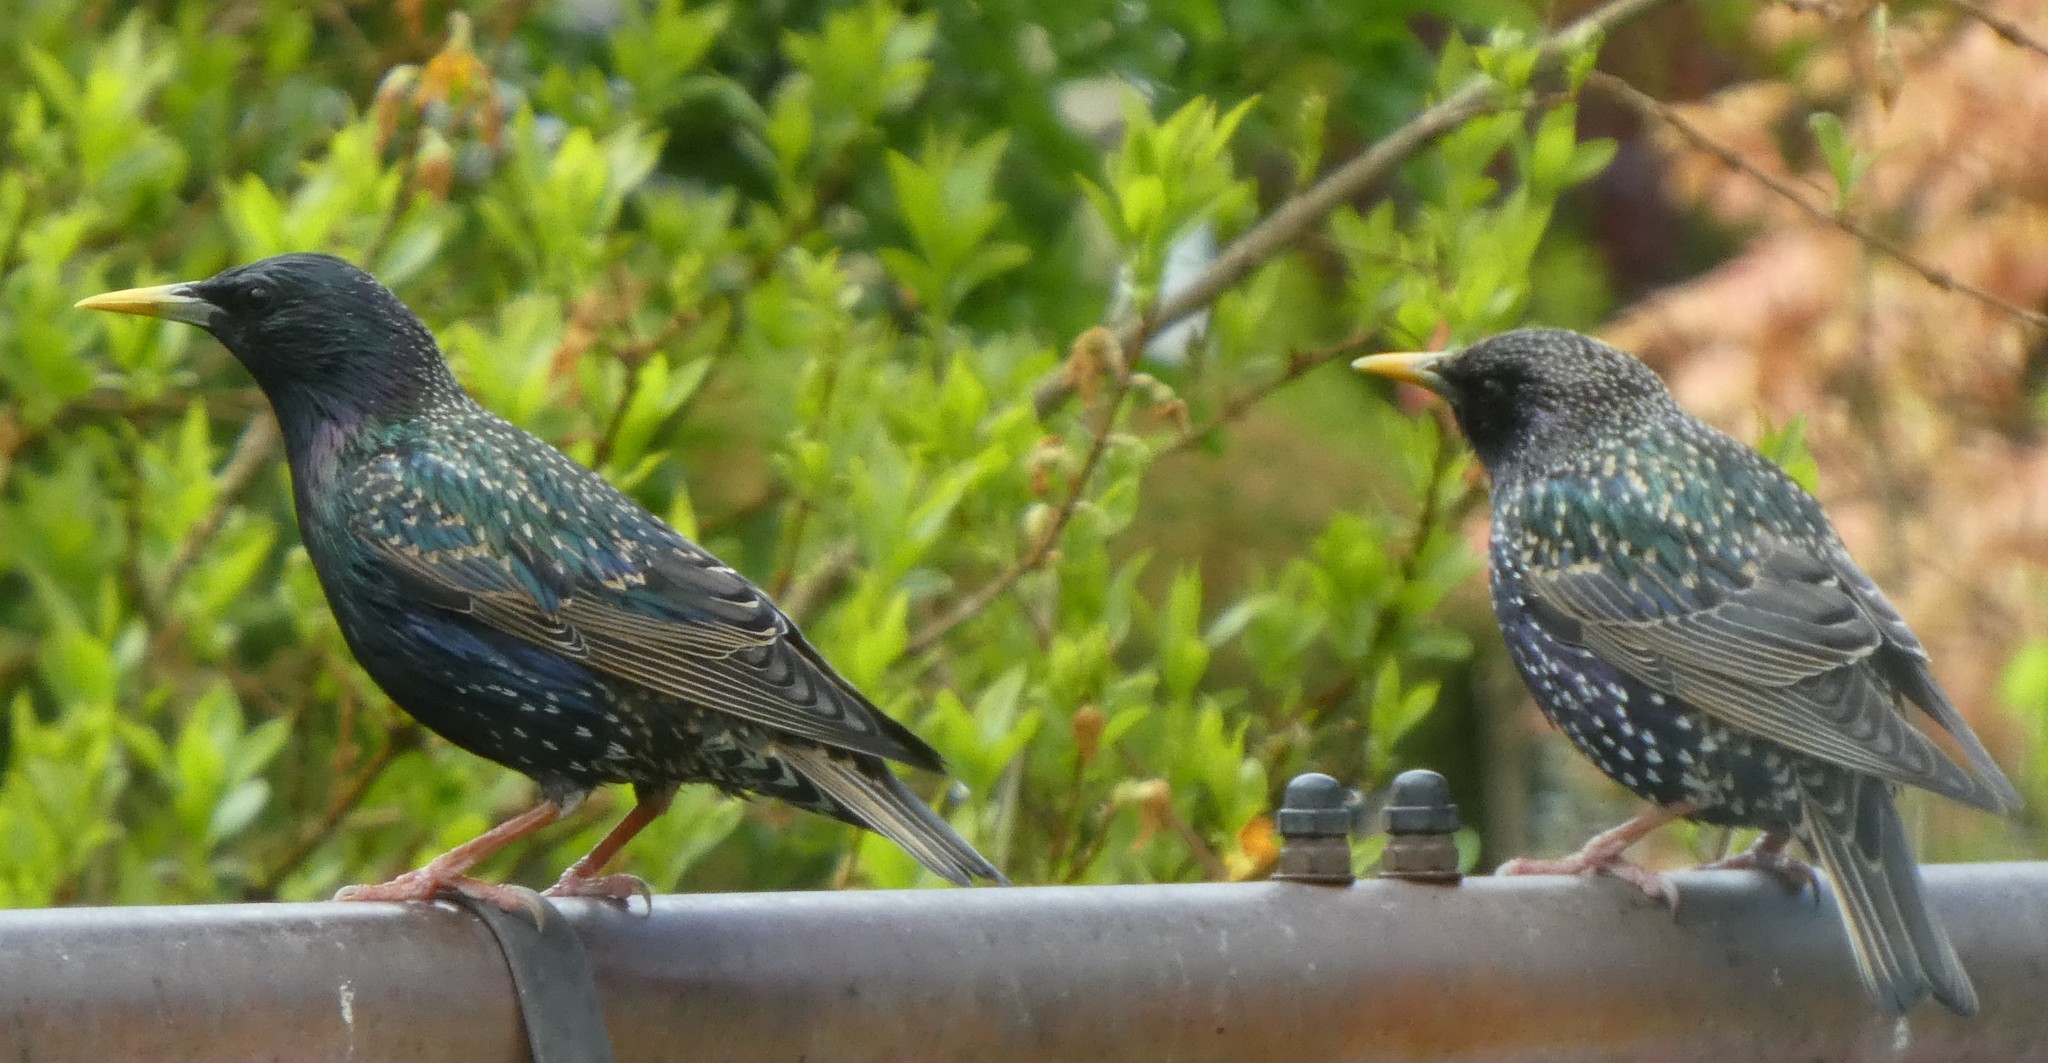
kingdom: Animalia
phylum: Chordata
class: Aves
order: Passeriformes
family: Sturnidae
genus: Sturnus
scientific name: Sturnus vulgaris
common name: Common starling
